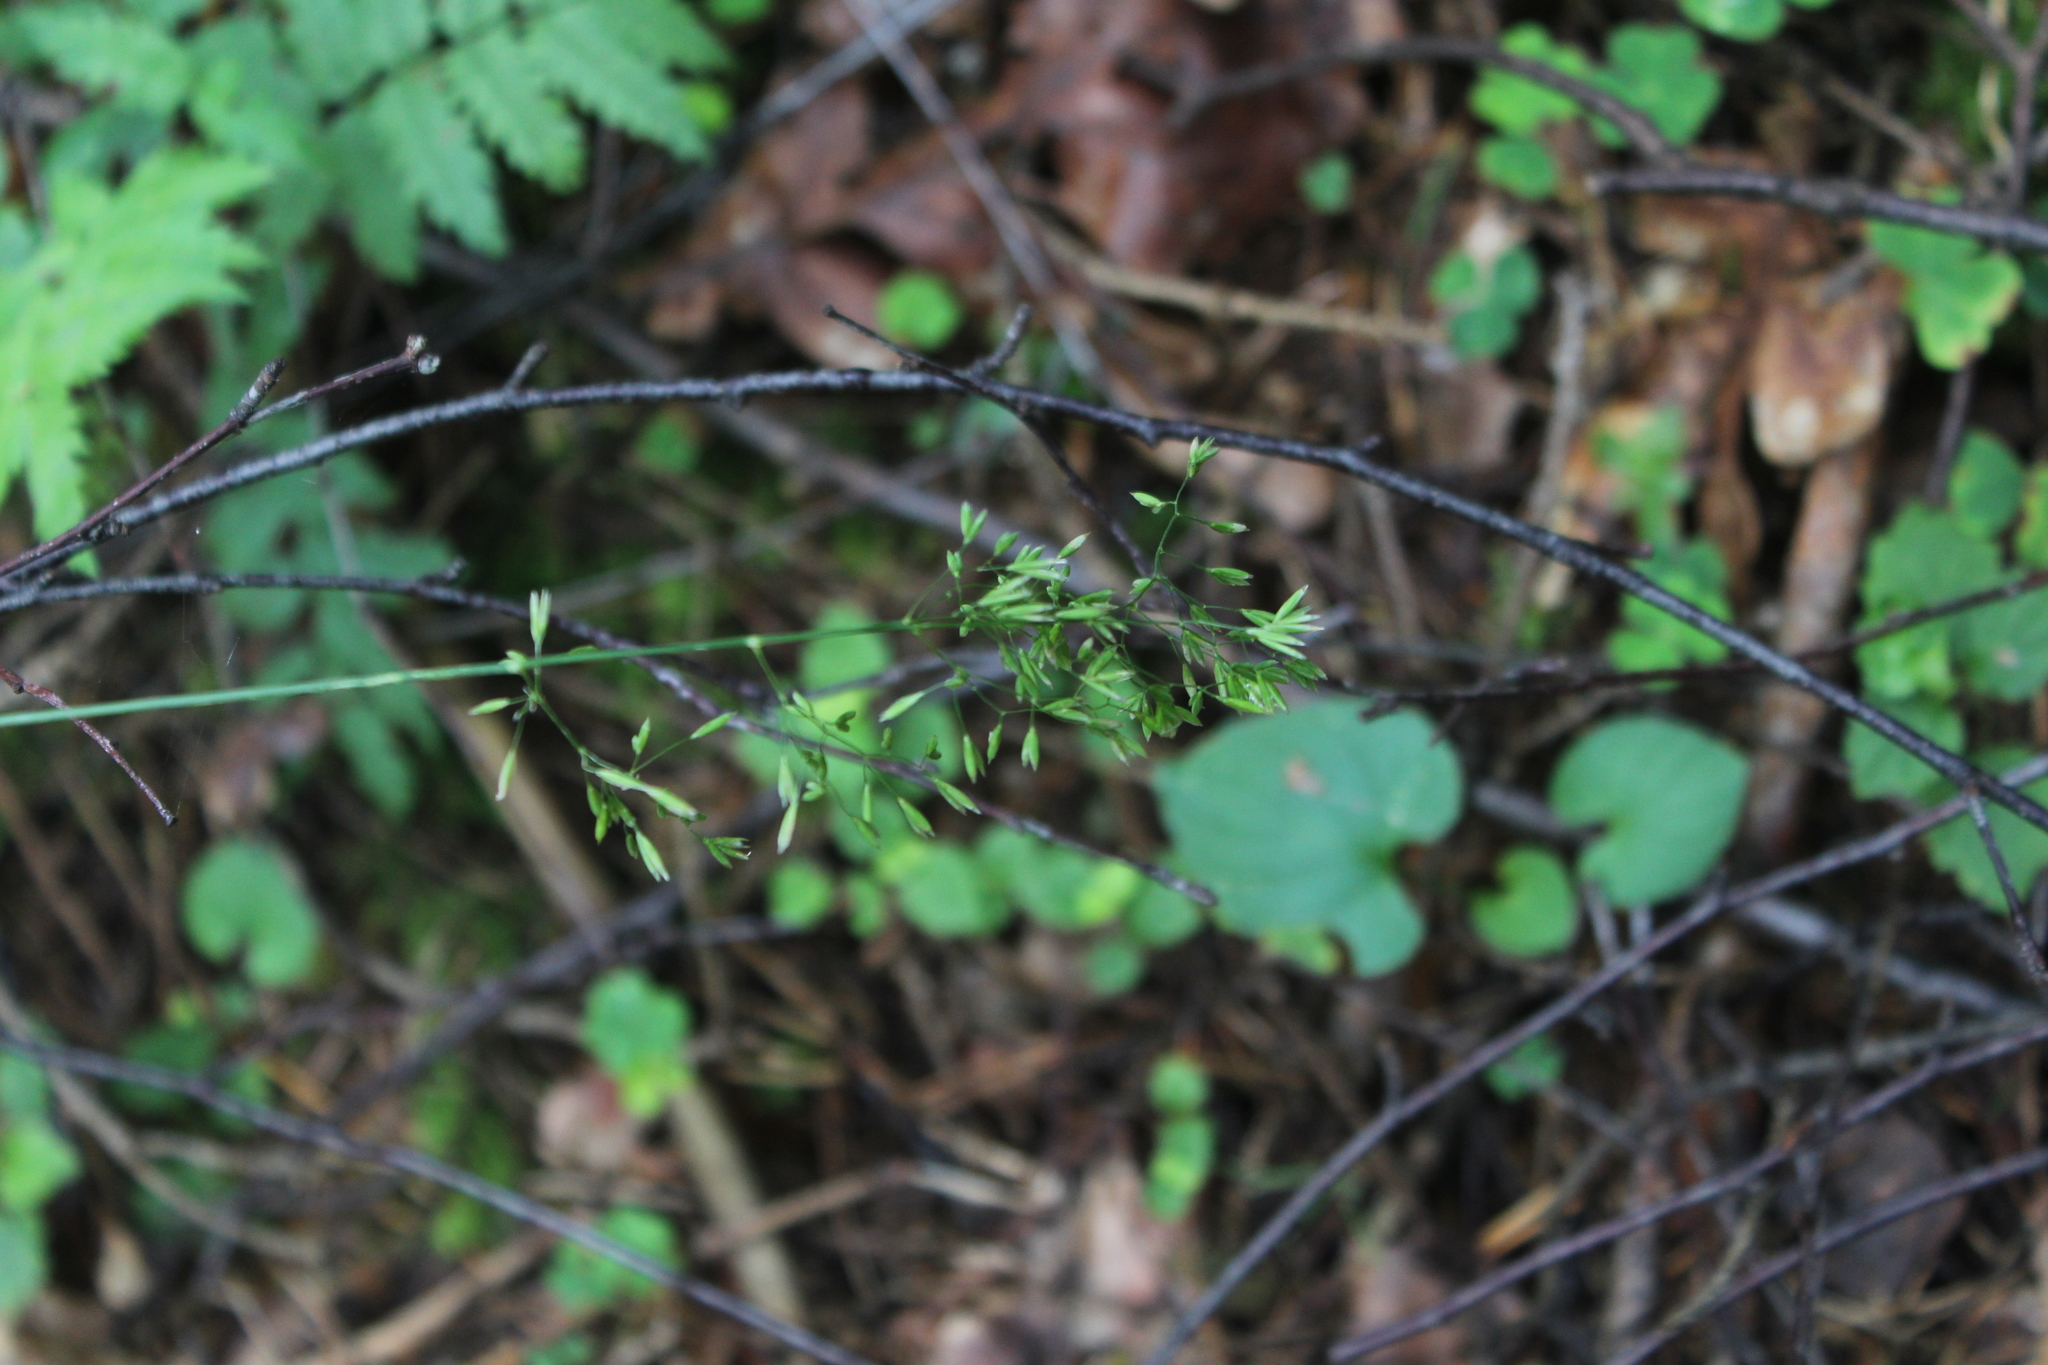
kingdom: Plantae
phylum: Tracheophyta
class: Liliopsida
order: Poales
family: Poaceae
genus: Festuca
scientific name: Festuca altissima
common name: Wood fescue
